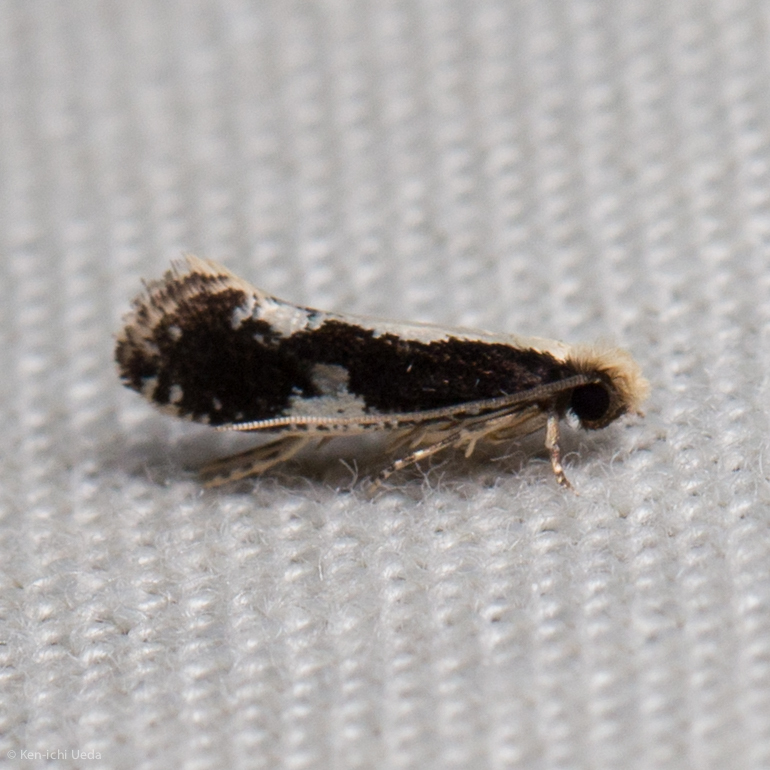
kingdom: Animalia
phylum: Arthropoda
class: Insecta
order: Lepidoptera
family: Tineidae
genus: Monopis
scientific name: Monopis dorsistrigella
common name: Skunkback monopis moth
